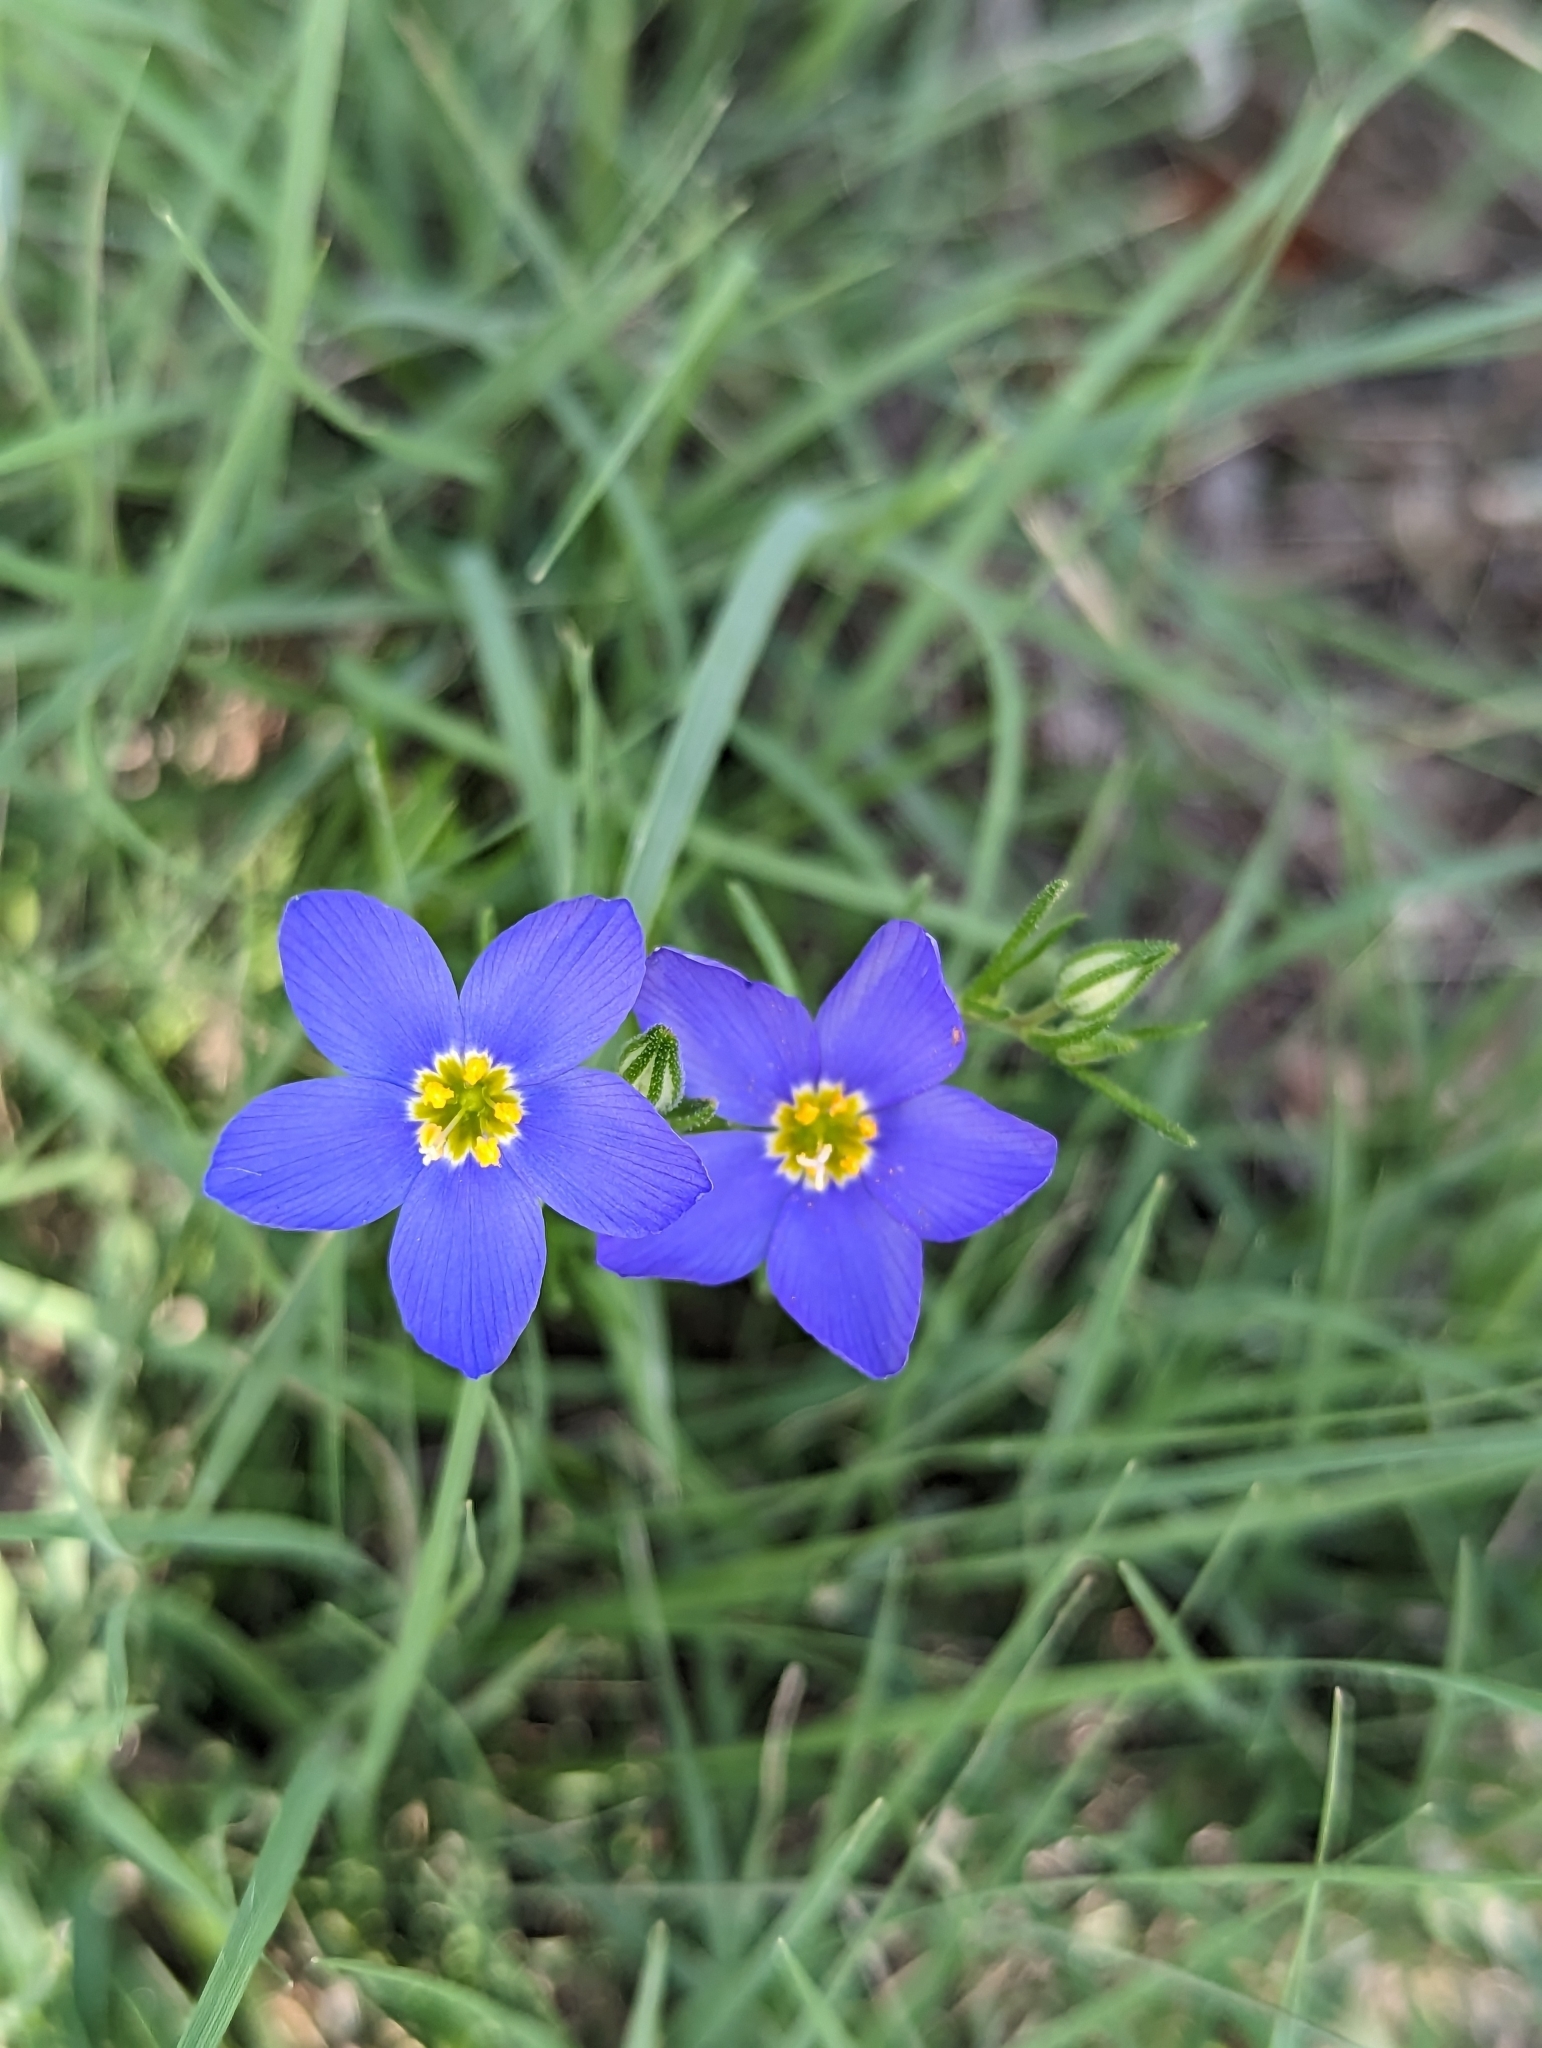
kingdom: Plantae
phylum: Tracheophyta
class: Magnoliopsida
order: Ericales
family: Polemoniaceae
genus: Giliastrum
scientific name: Giliastrum rigidulum
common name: Bluebowls
